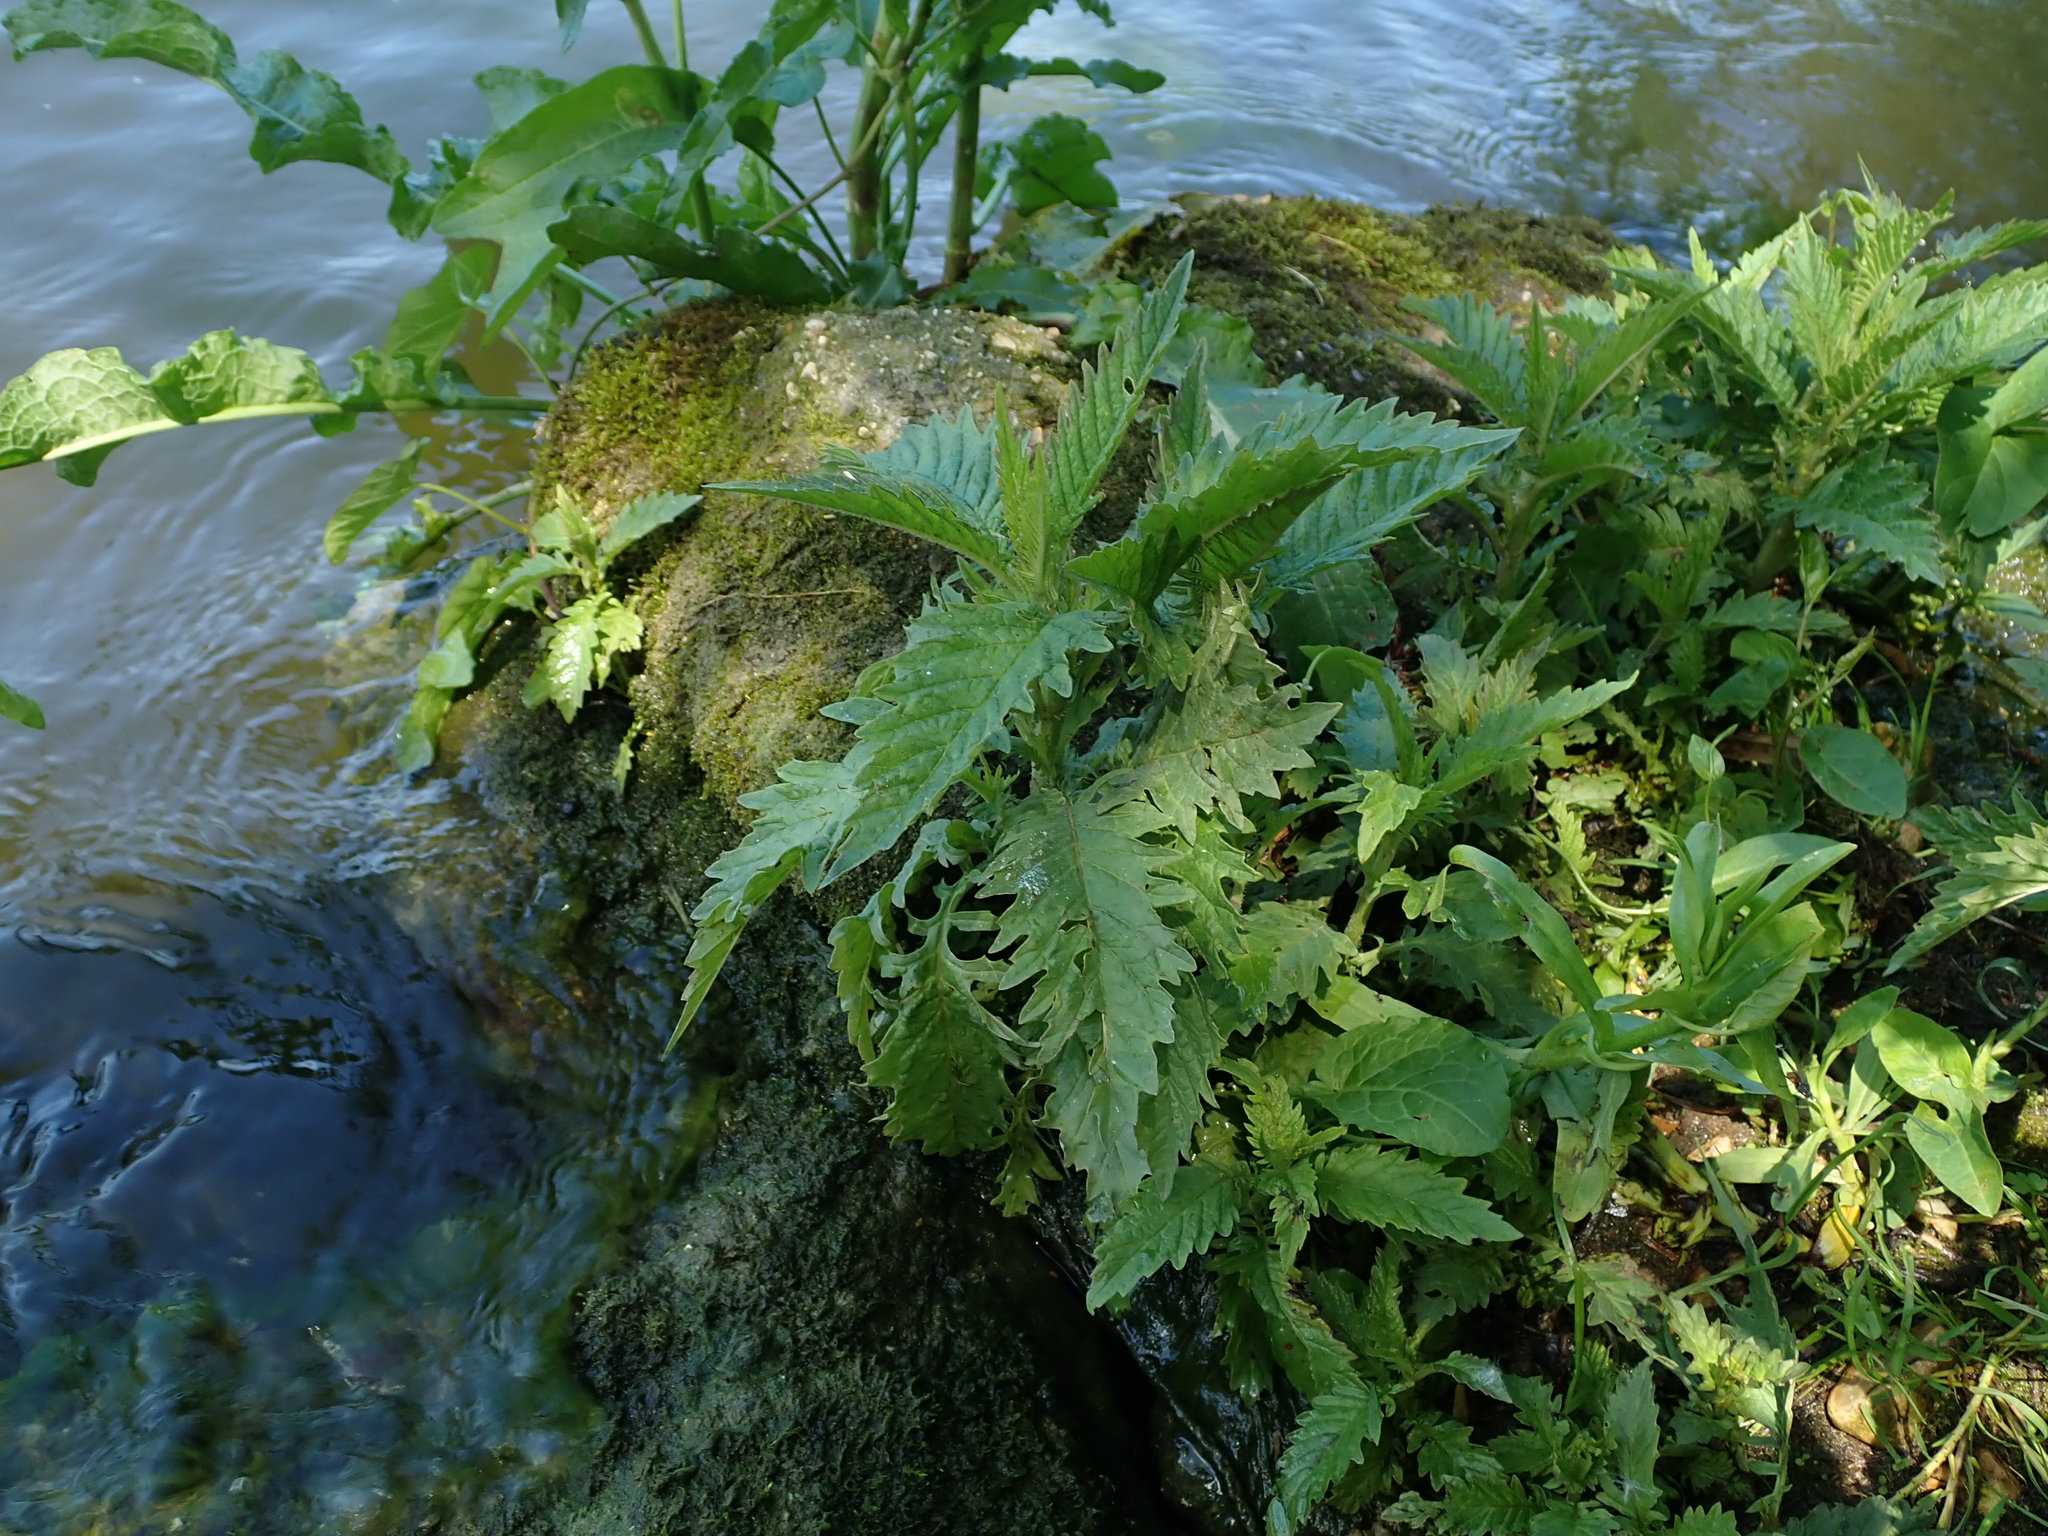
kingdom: Plantae
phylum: Tracheophyta
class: Magnoliopsida
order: Lamiales
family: Lamiaceae
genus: Lycopus
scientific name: Lycopus europaeus
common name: European bugleweed
